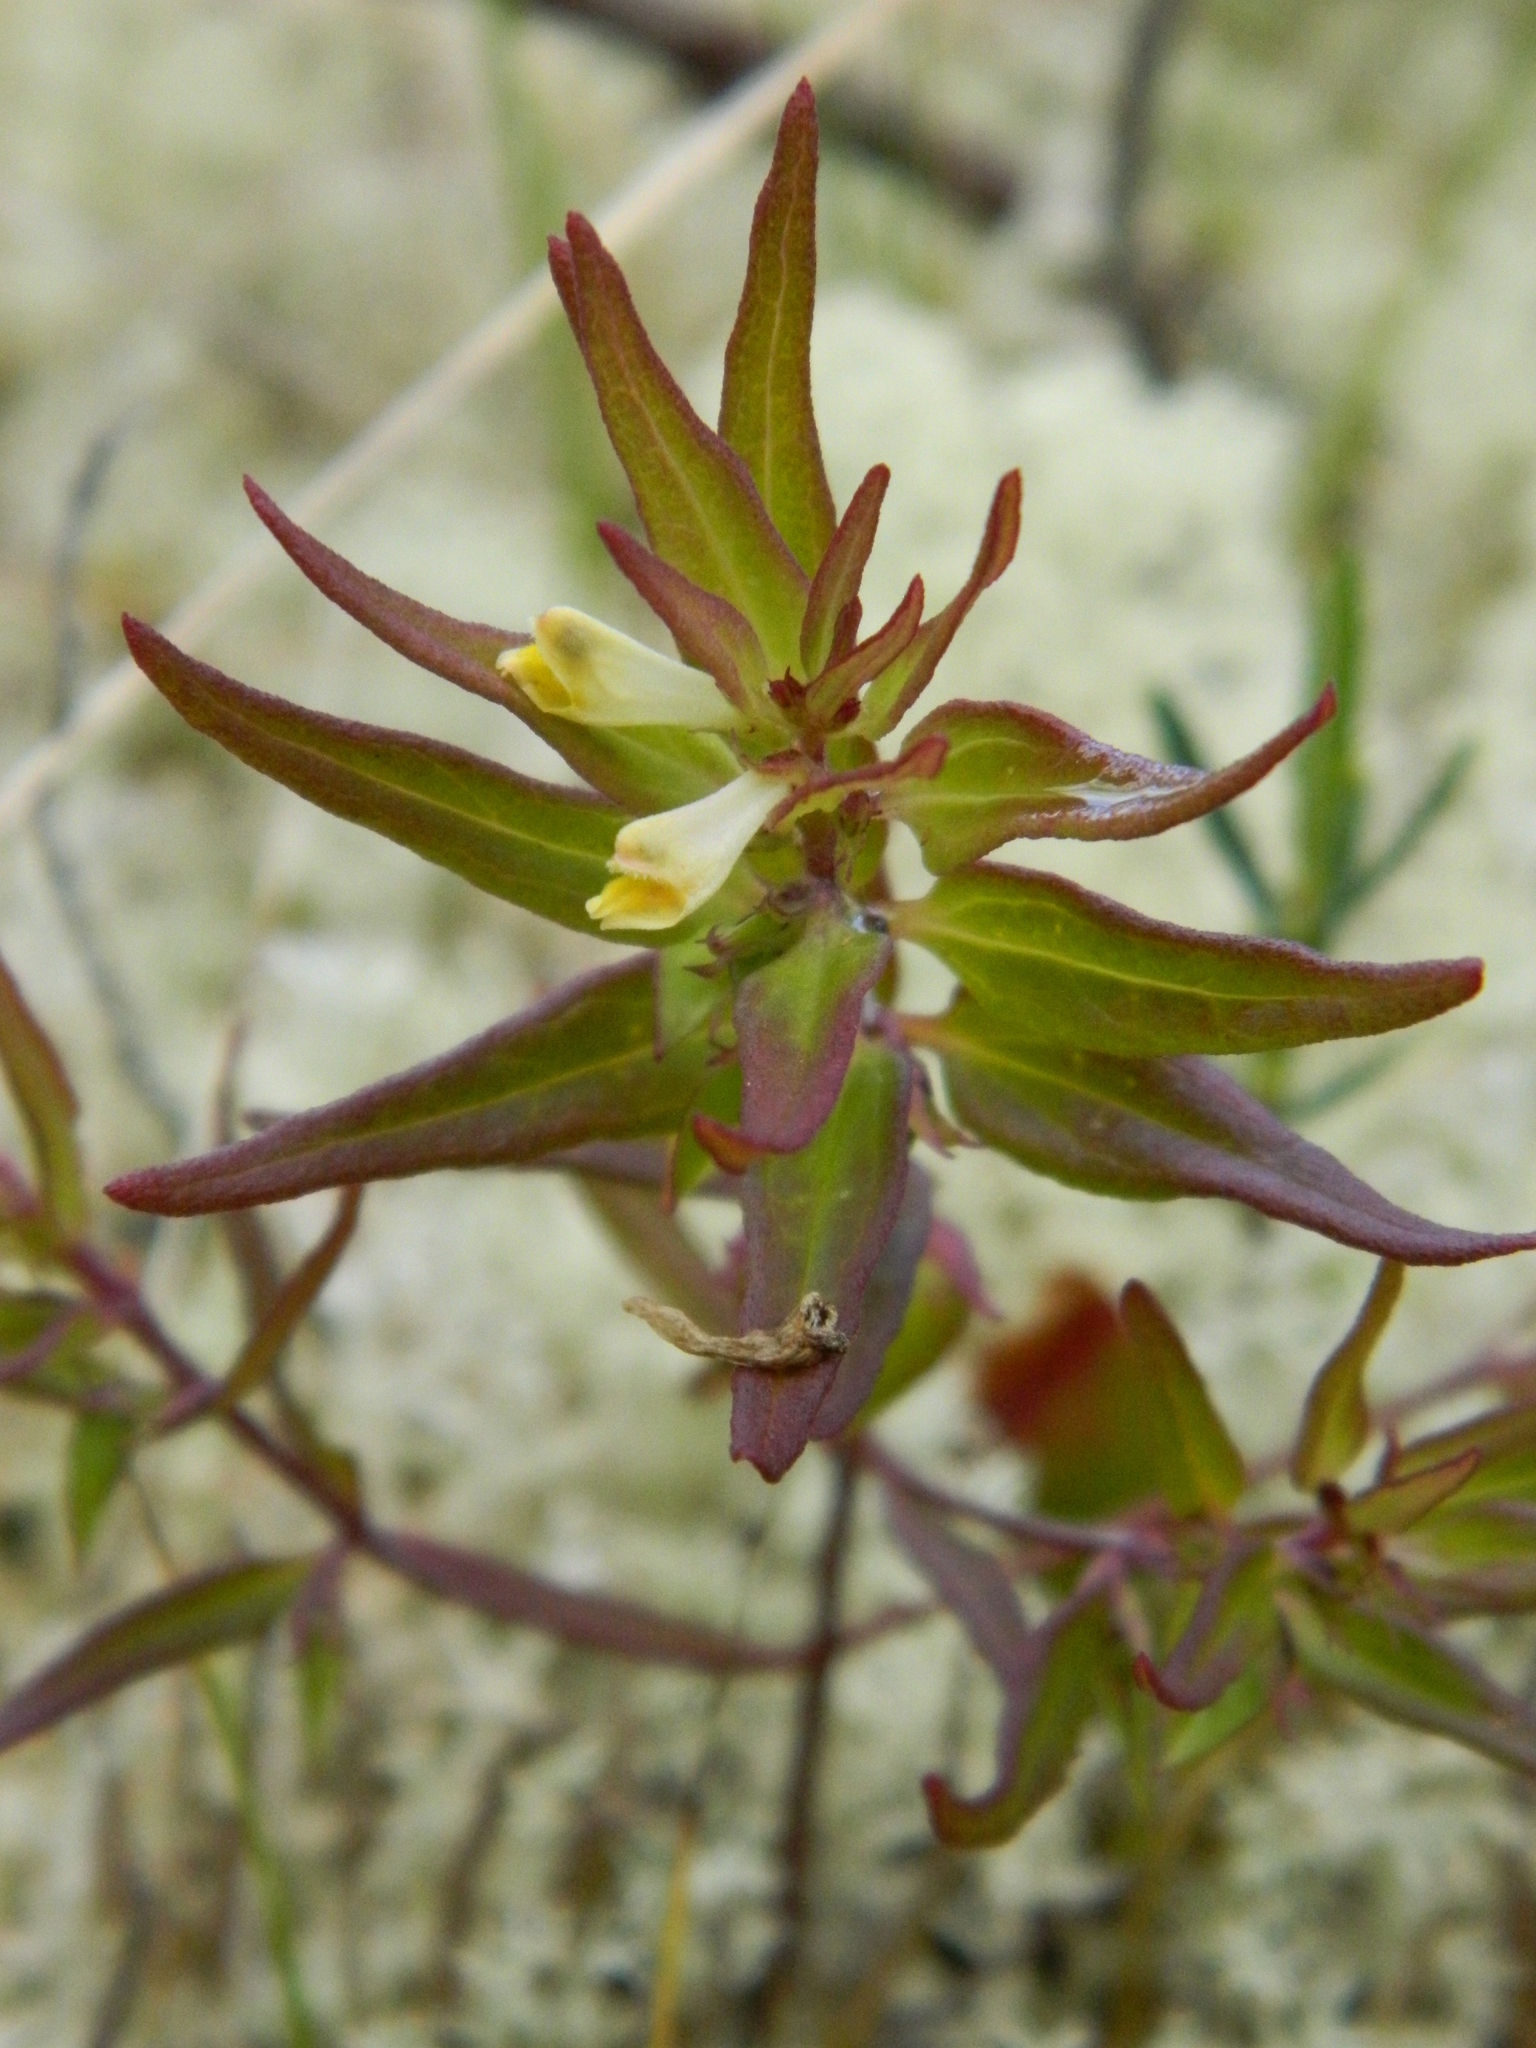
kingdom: Plantae
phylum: Tracheophyta
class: Magnoliopsida
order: Lamiales
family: Orobanchaceae
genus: Melampyrum
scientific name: Melampyrum lineare
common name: American cow-wheat
